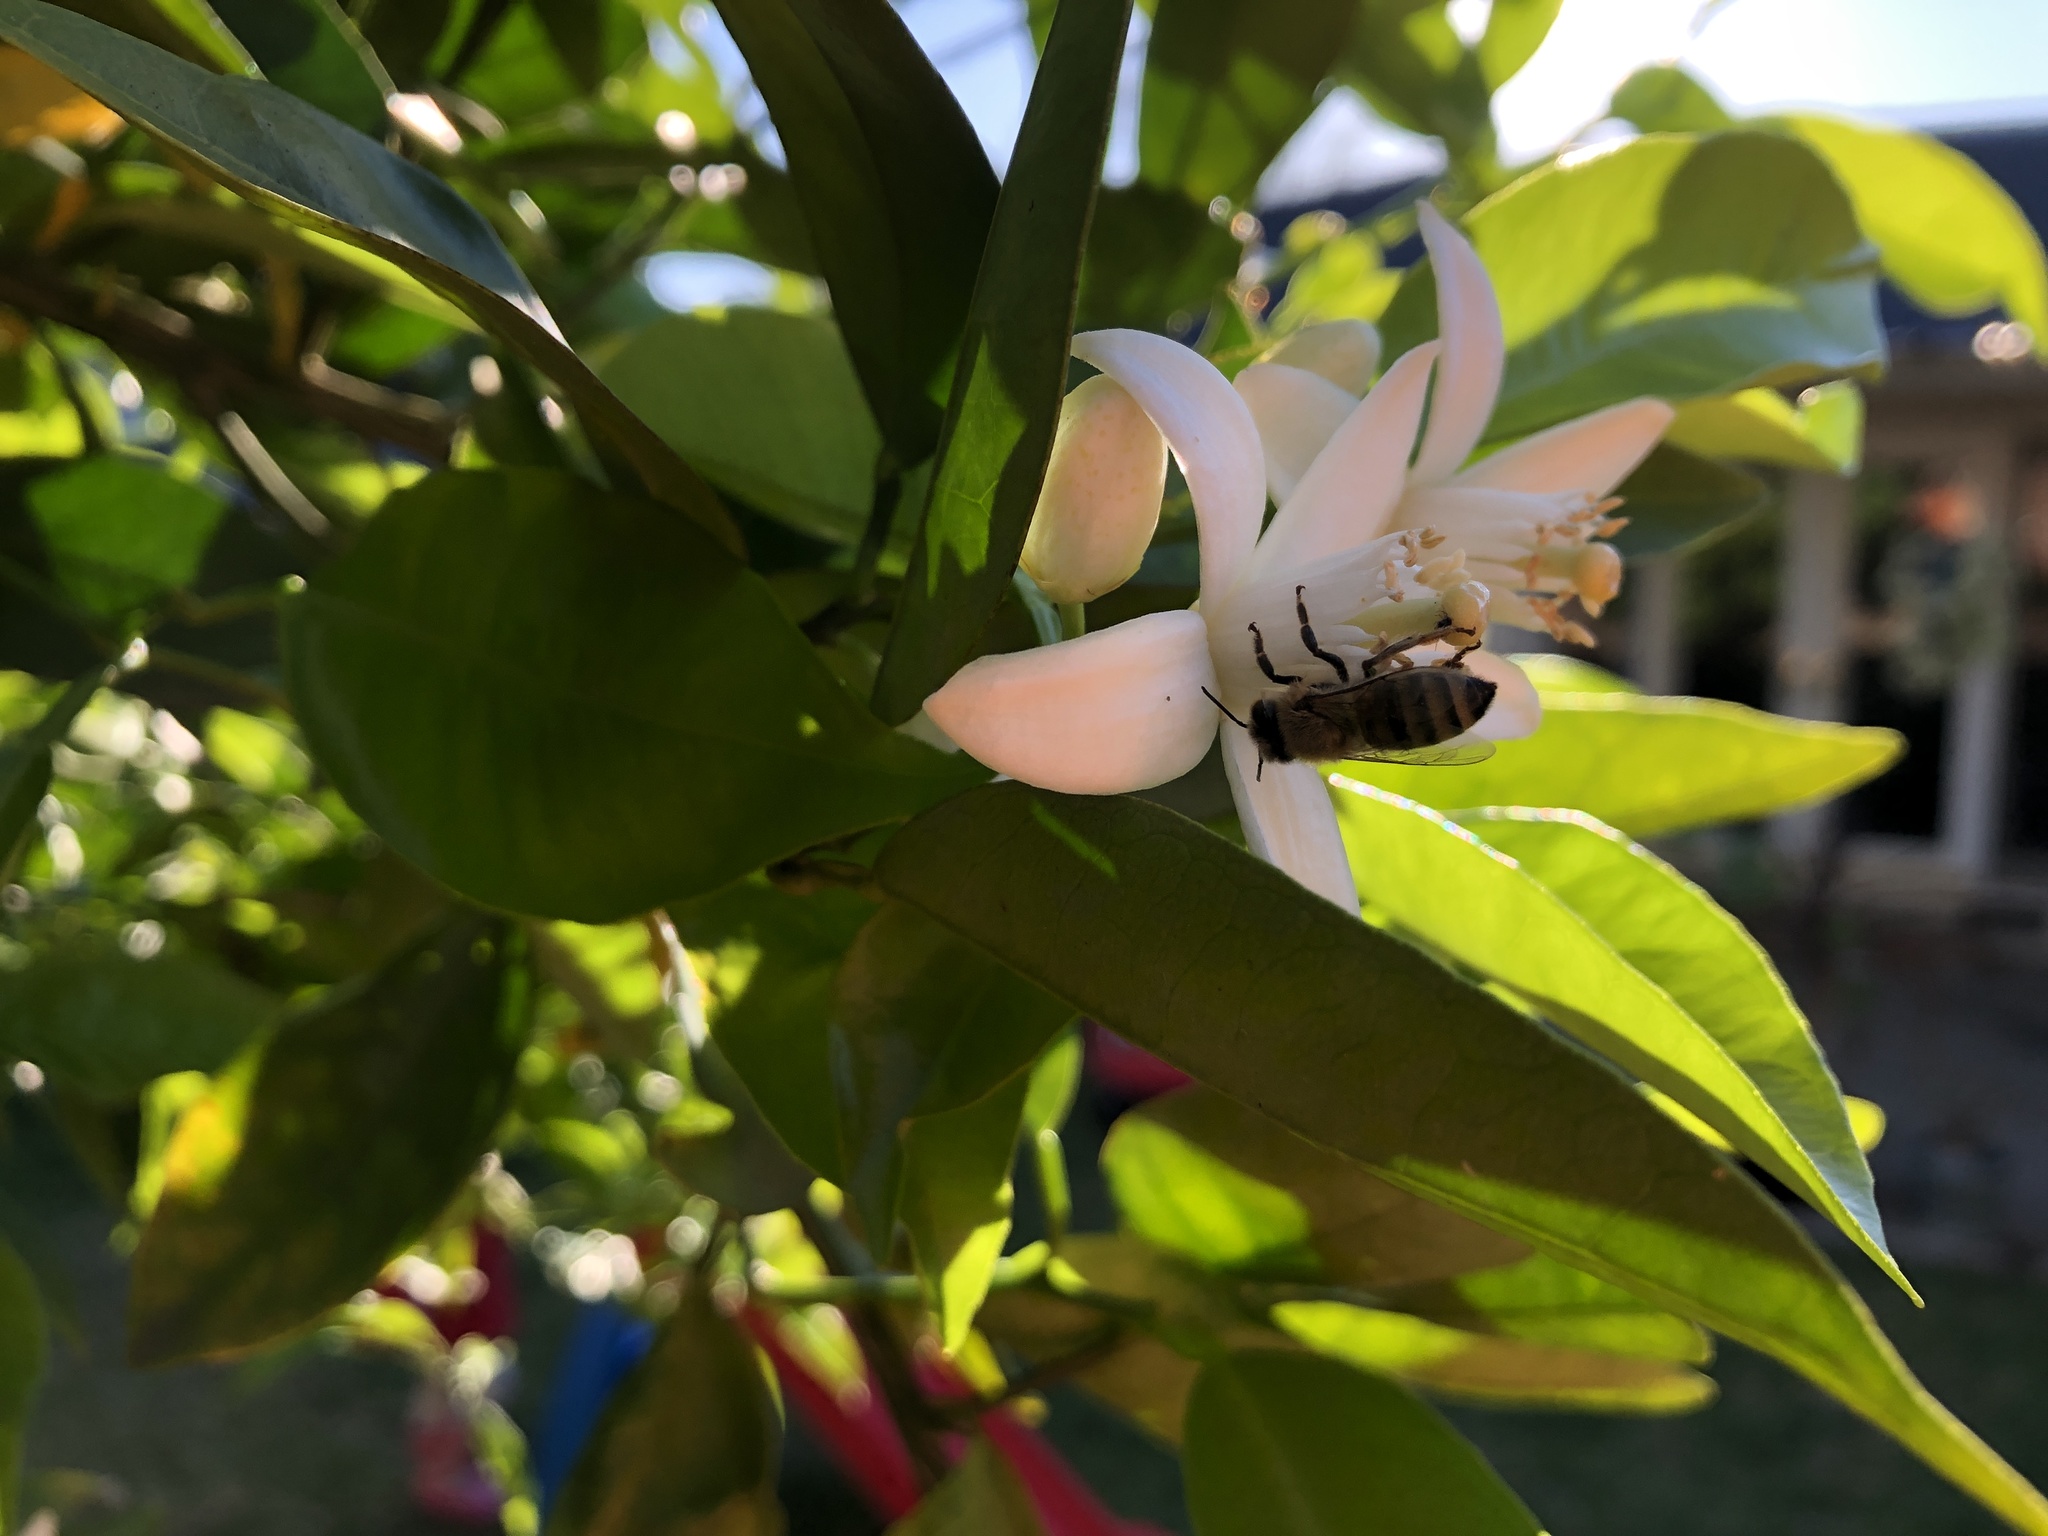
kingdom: Animalia
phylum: Arthropoda
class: Insecta
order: Hymenoptera
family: Apidae
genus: Apis
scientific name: Apis mellifera
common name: Honey bee
